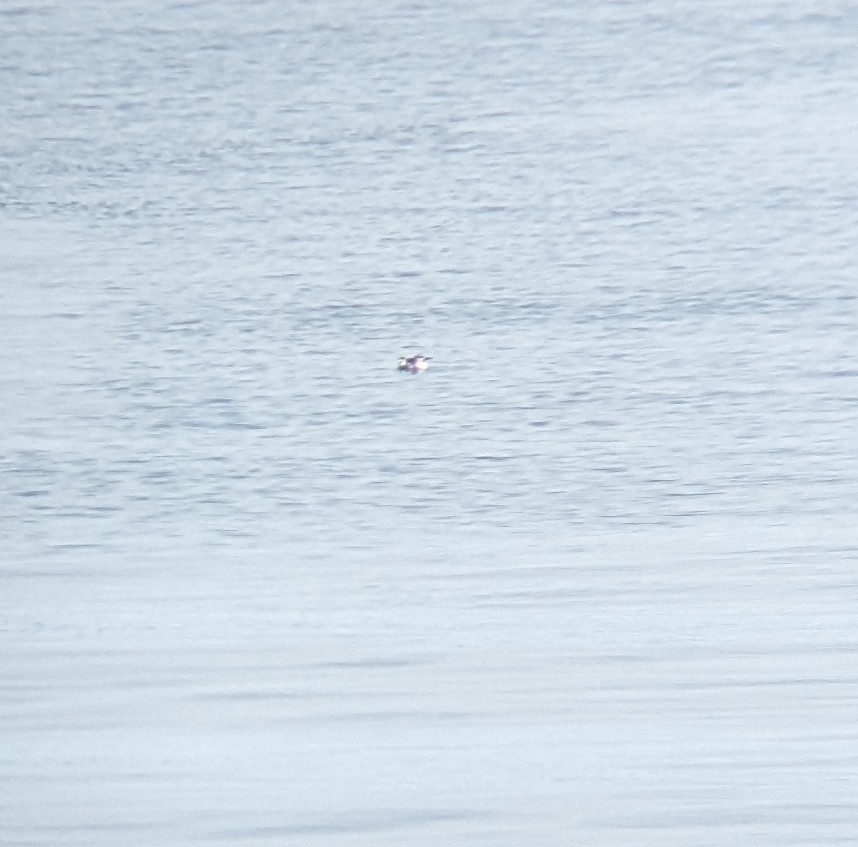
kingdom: Animalia
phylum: Chordata
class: Aves
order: Charadriiformes
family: Alcidae
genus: Cepphus
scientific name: Cepphus grylle
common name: Black guillemot
